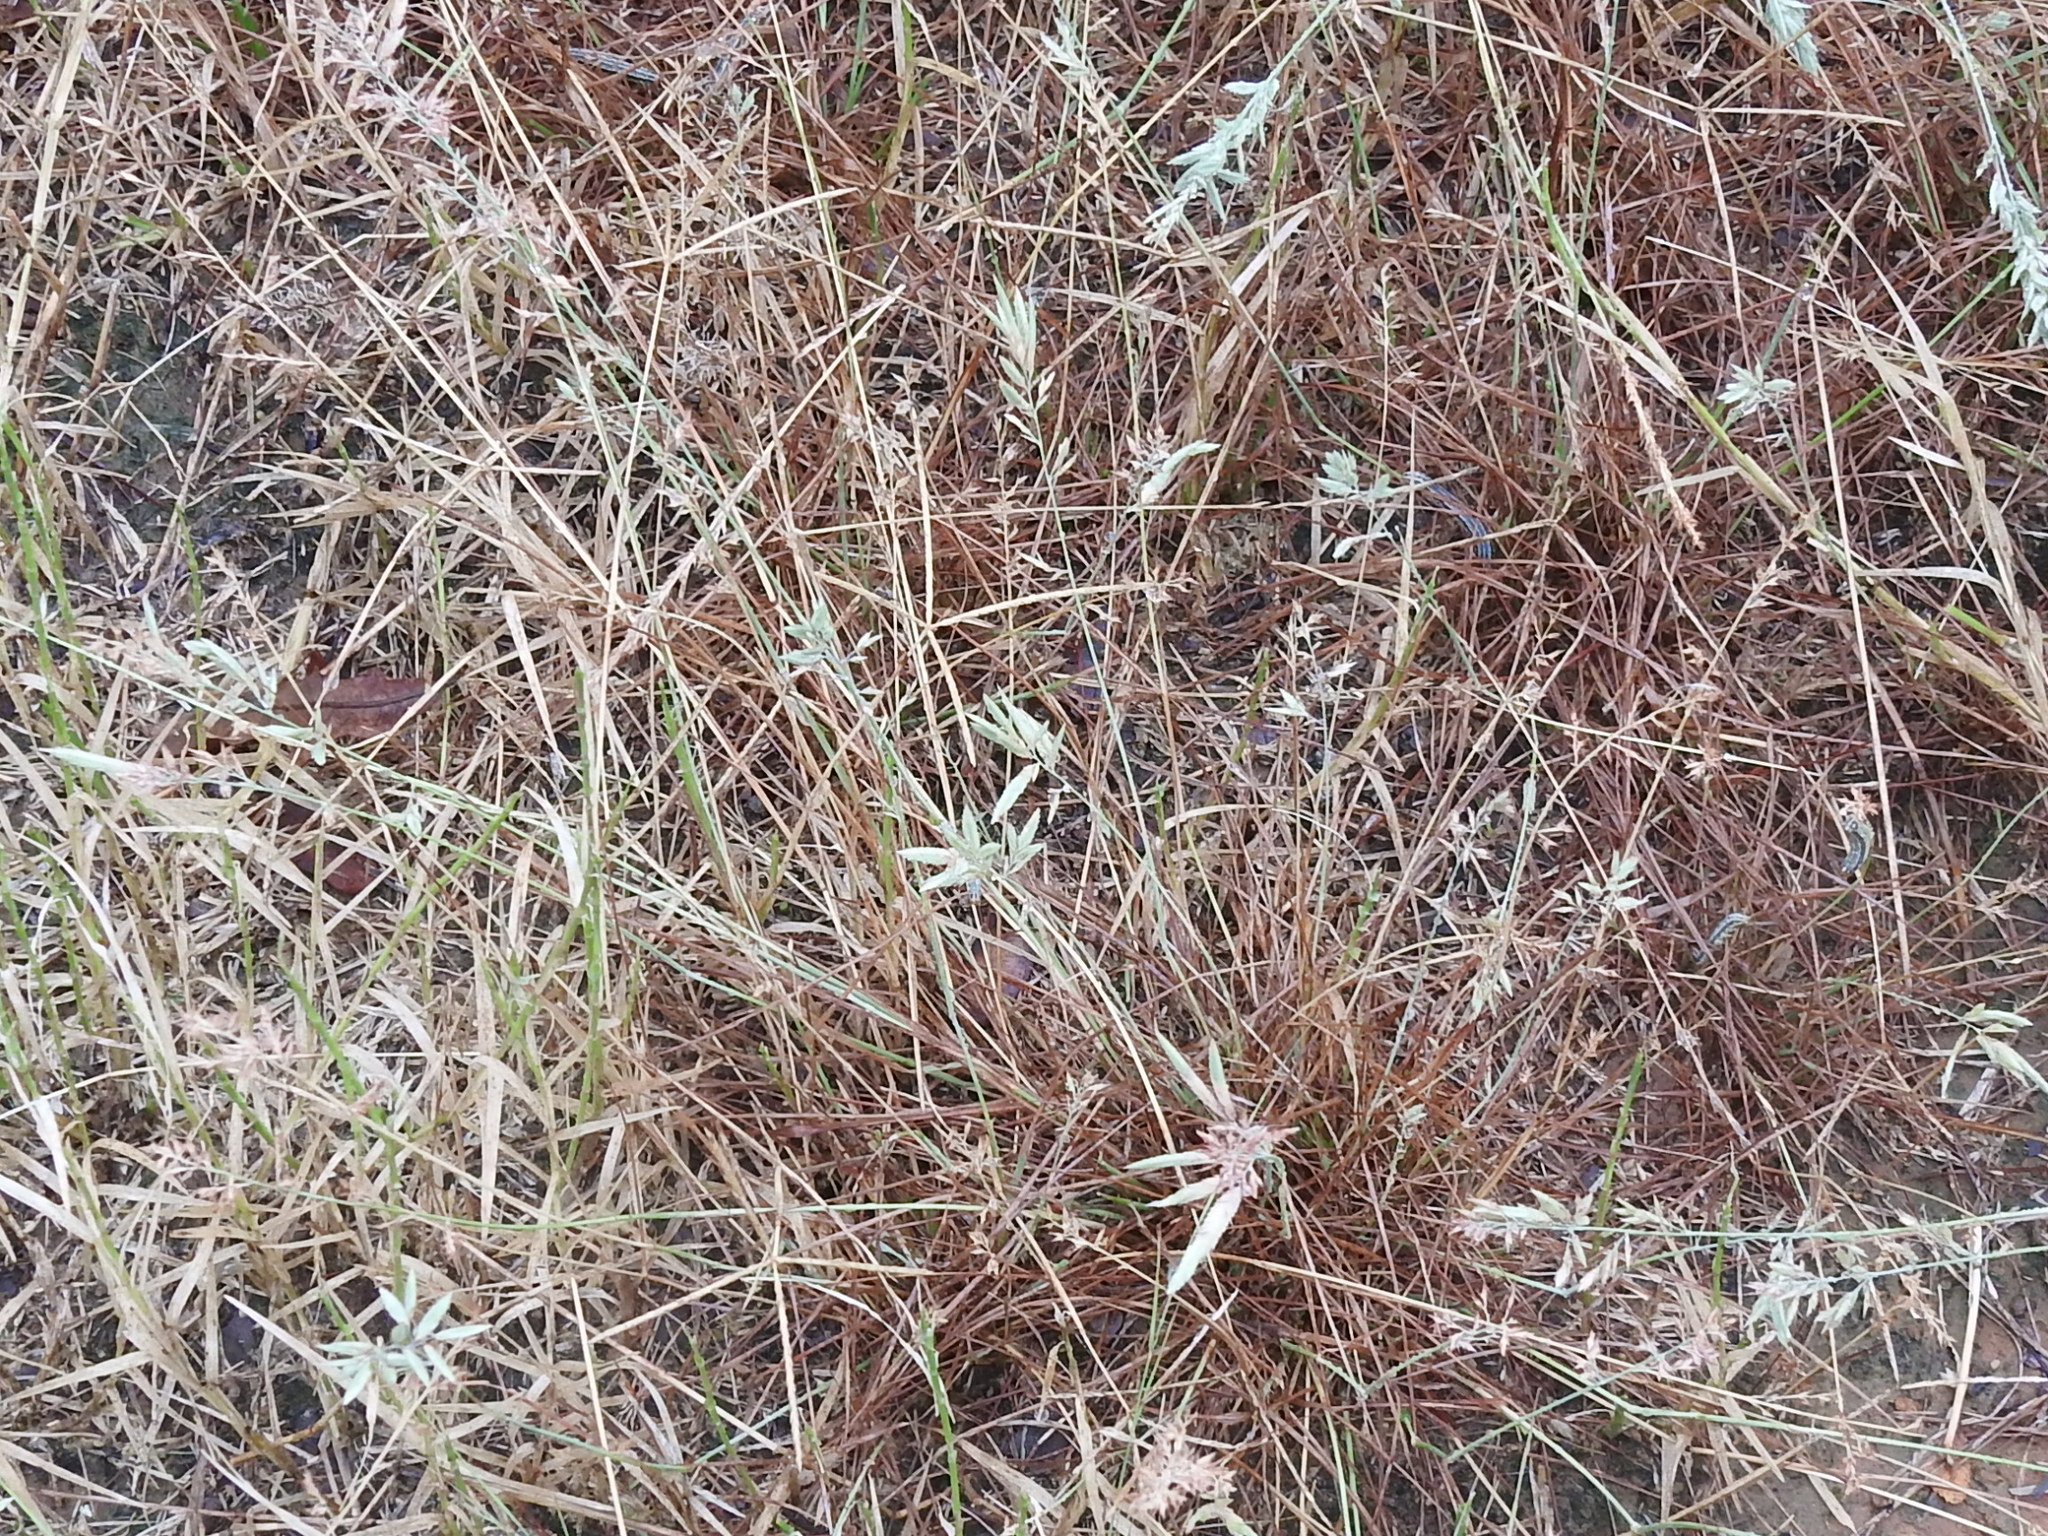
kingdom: Plantae
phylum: Tracheophyta
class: Liliopsida
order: Poales
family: Poaceae
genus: Eragrostis
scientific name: Eragrostis secundiflora
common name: Red love grass
